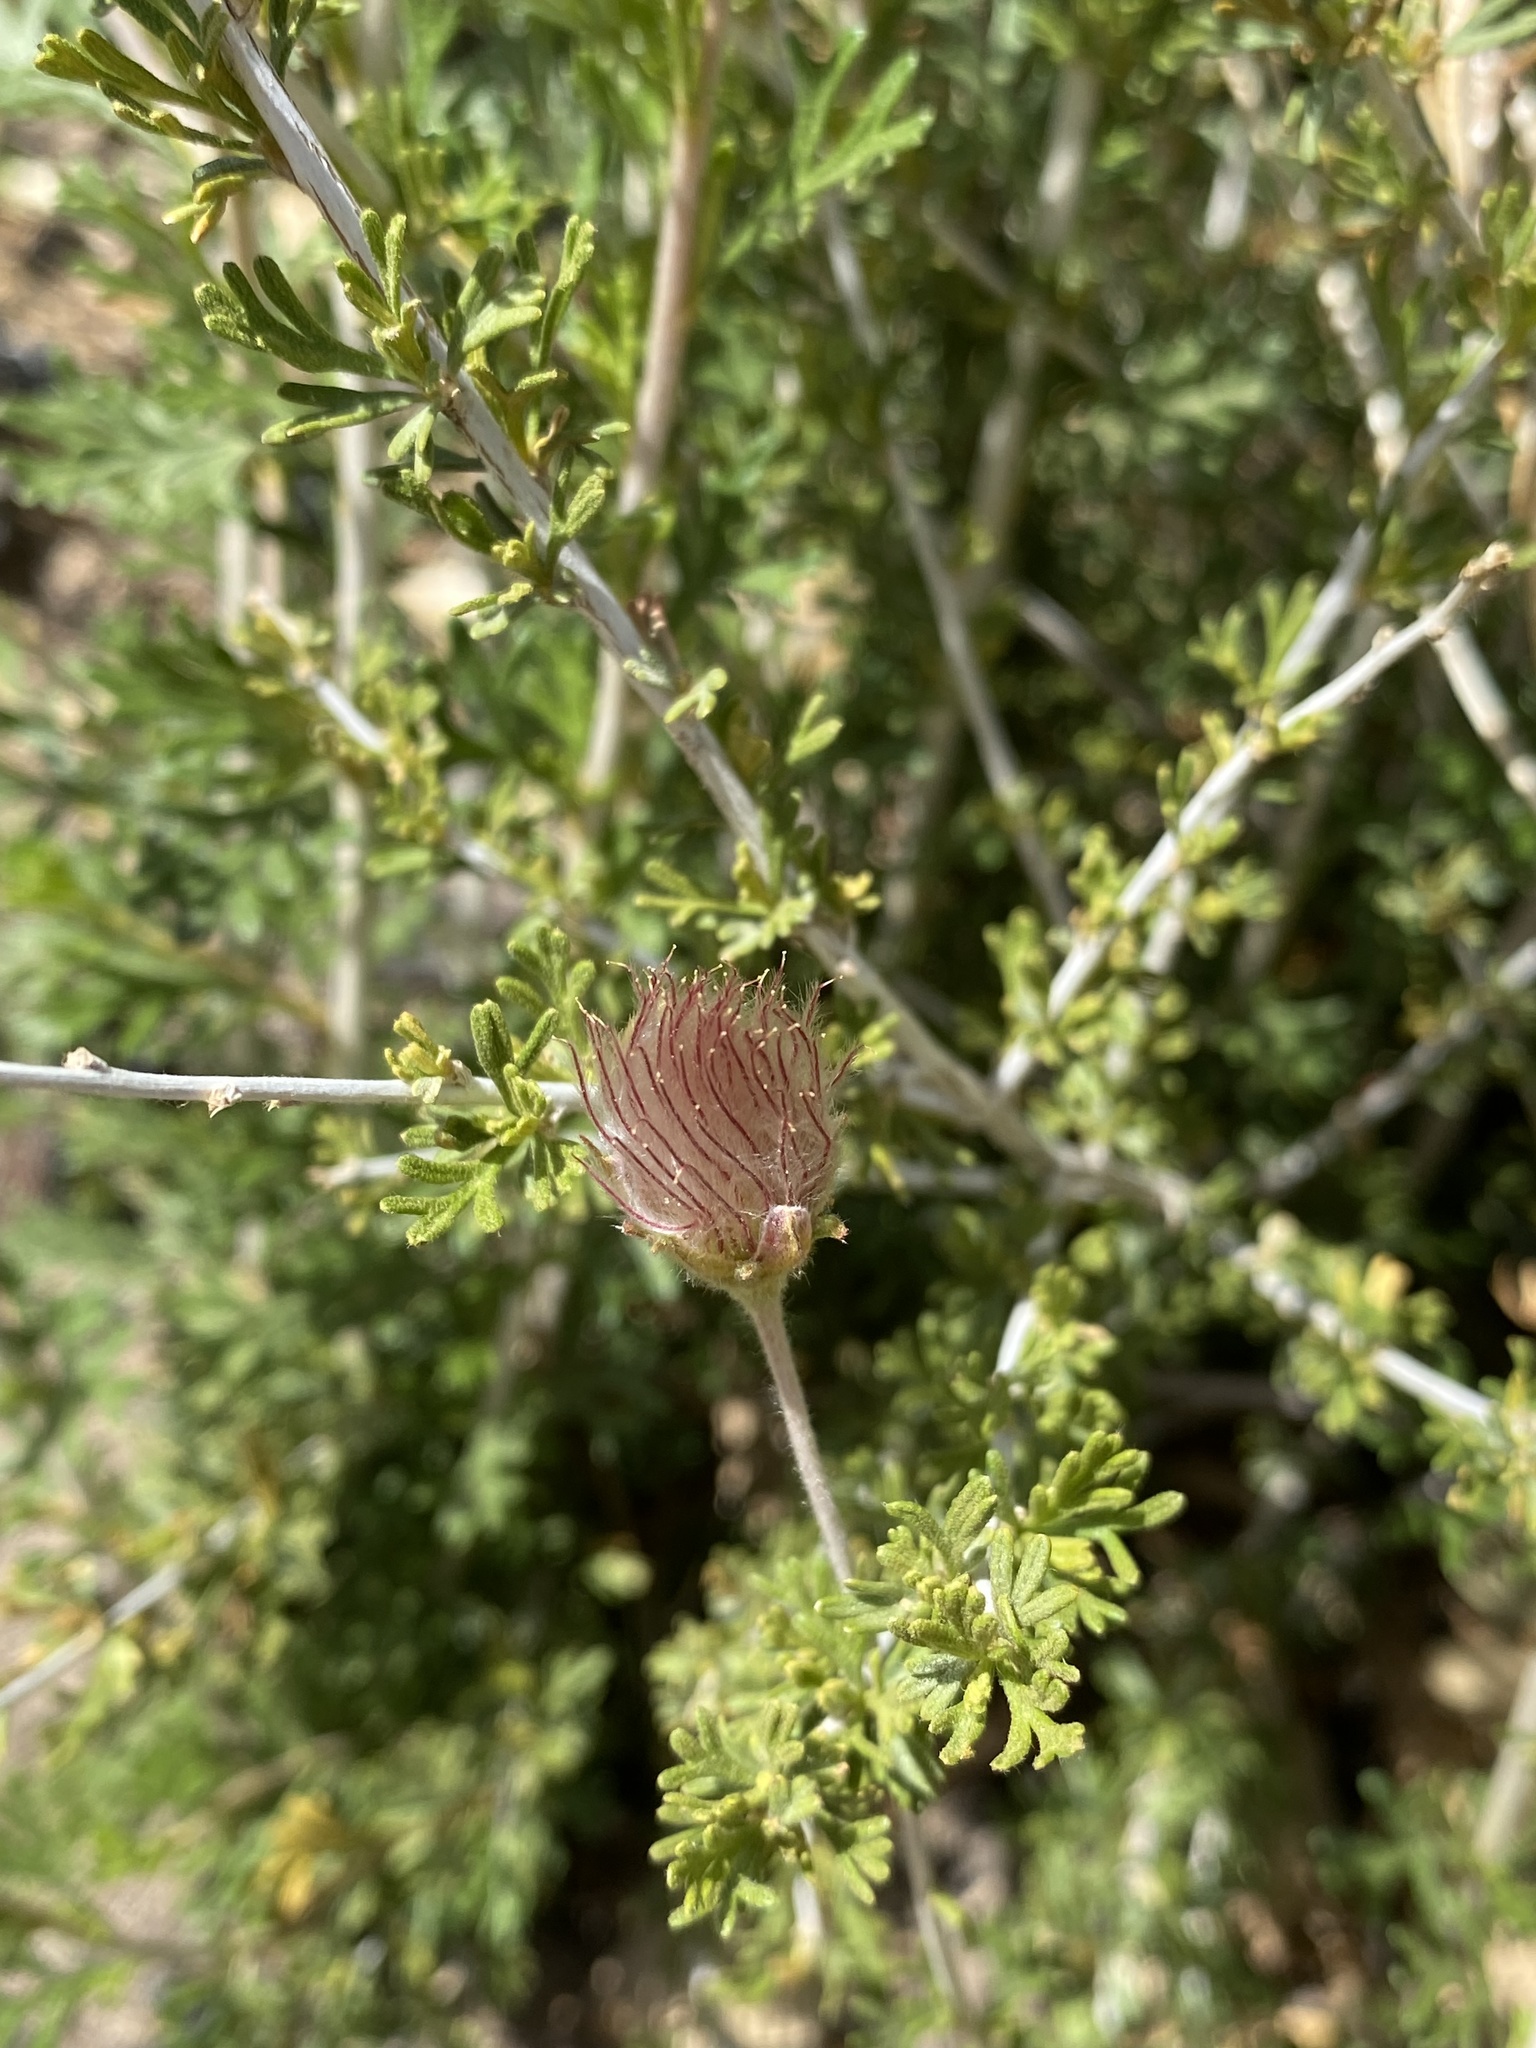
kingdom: Plantae
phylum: Tracheophyta
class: Magnoliopsida
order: Rosales
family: Rosaceae
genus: Fallugia
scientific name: Fallugia paradoxa
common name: Apache-plume
